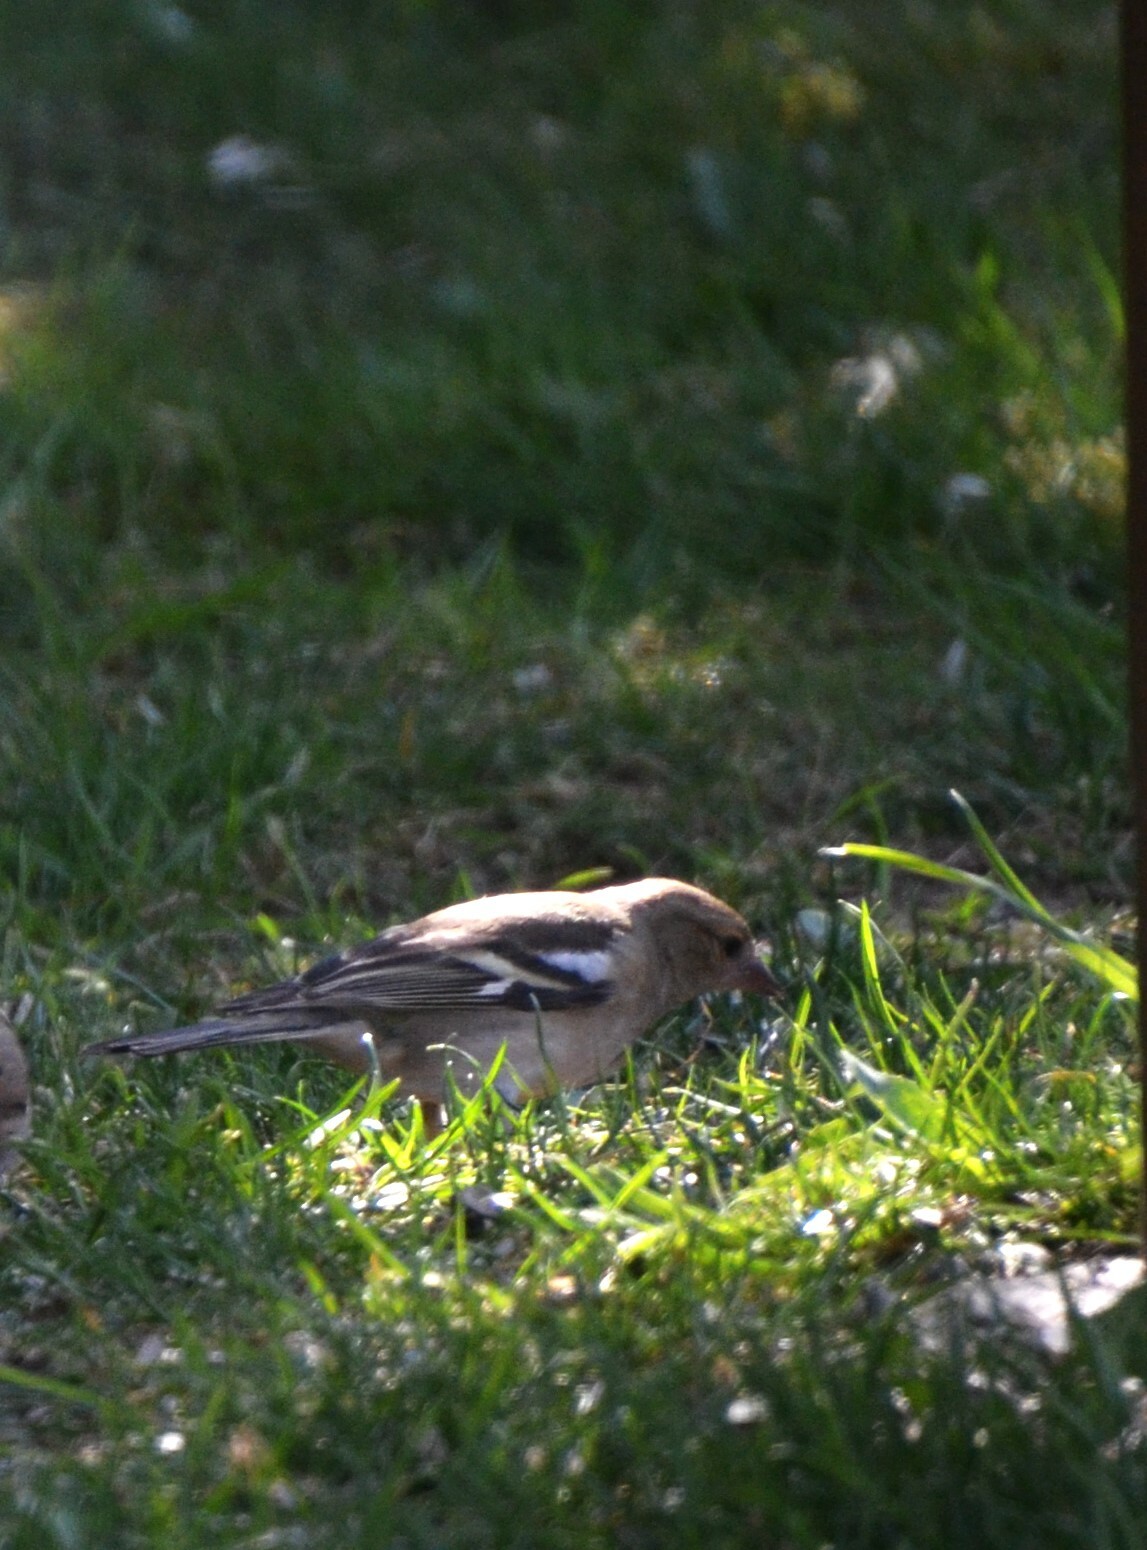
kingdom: Animalia
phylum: Chordata
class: Aves
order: Passeriformes
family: Fringillidae
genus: Fringilla
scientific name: Fringilla coelebs
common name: Common chaffinch
